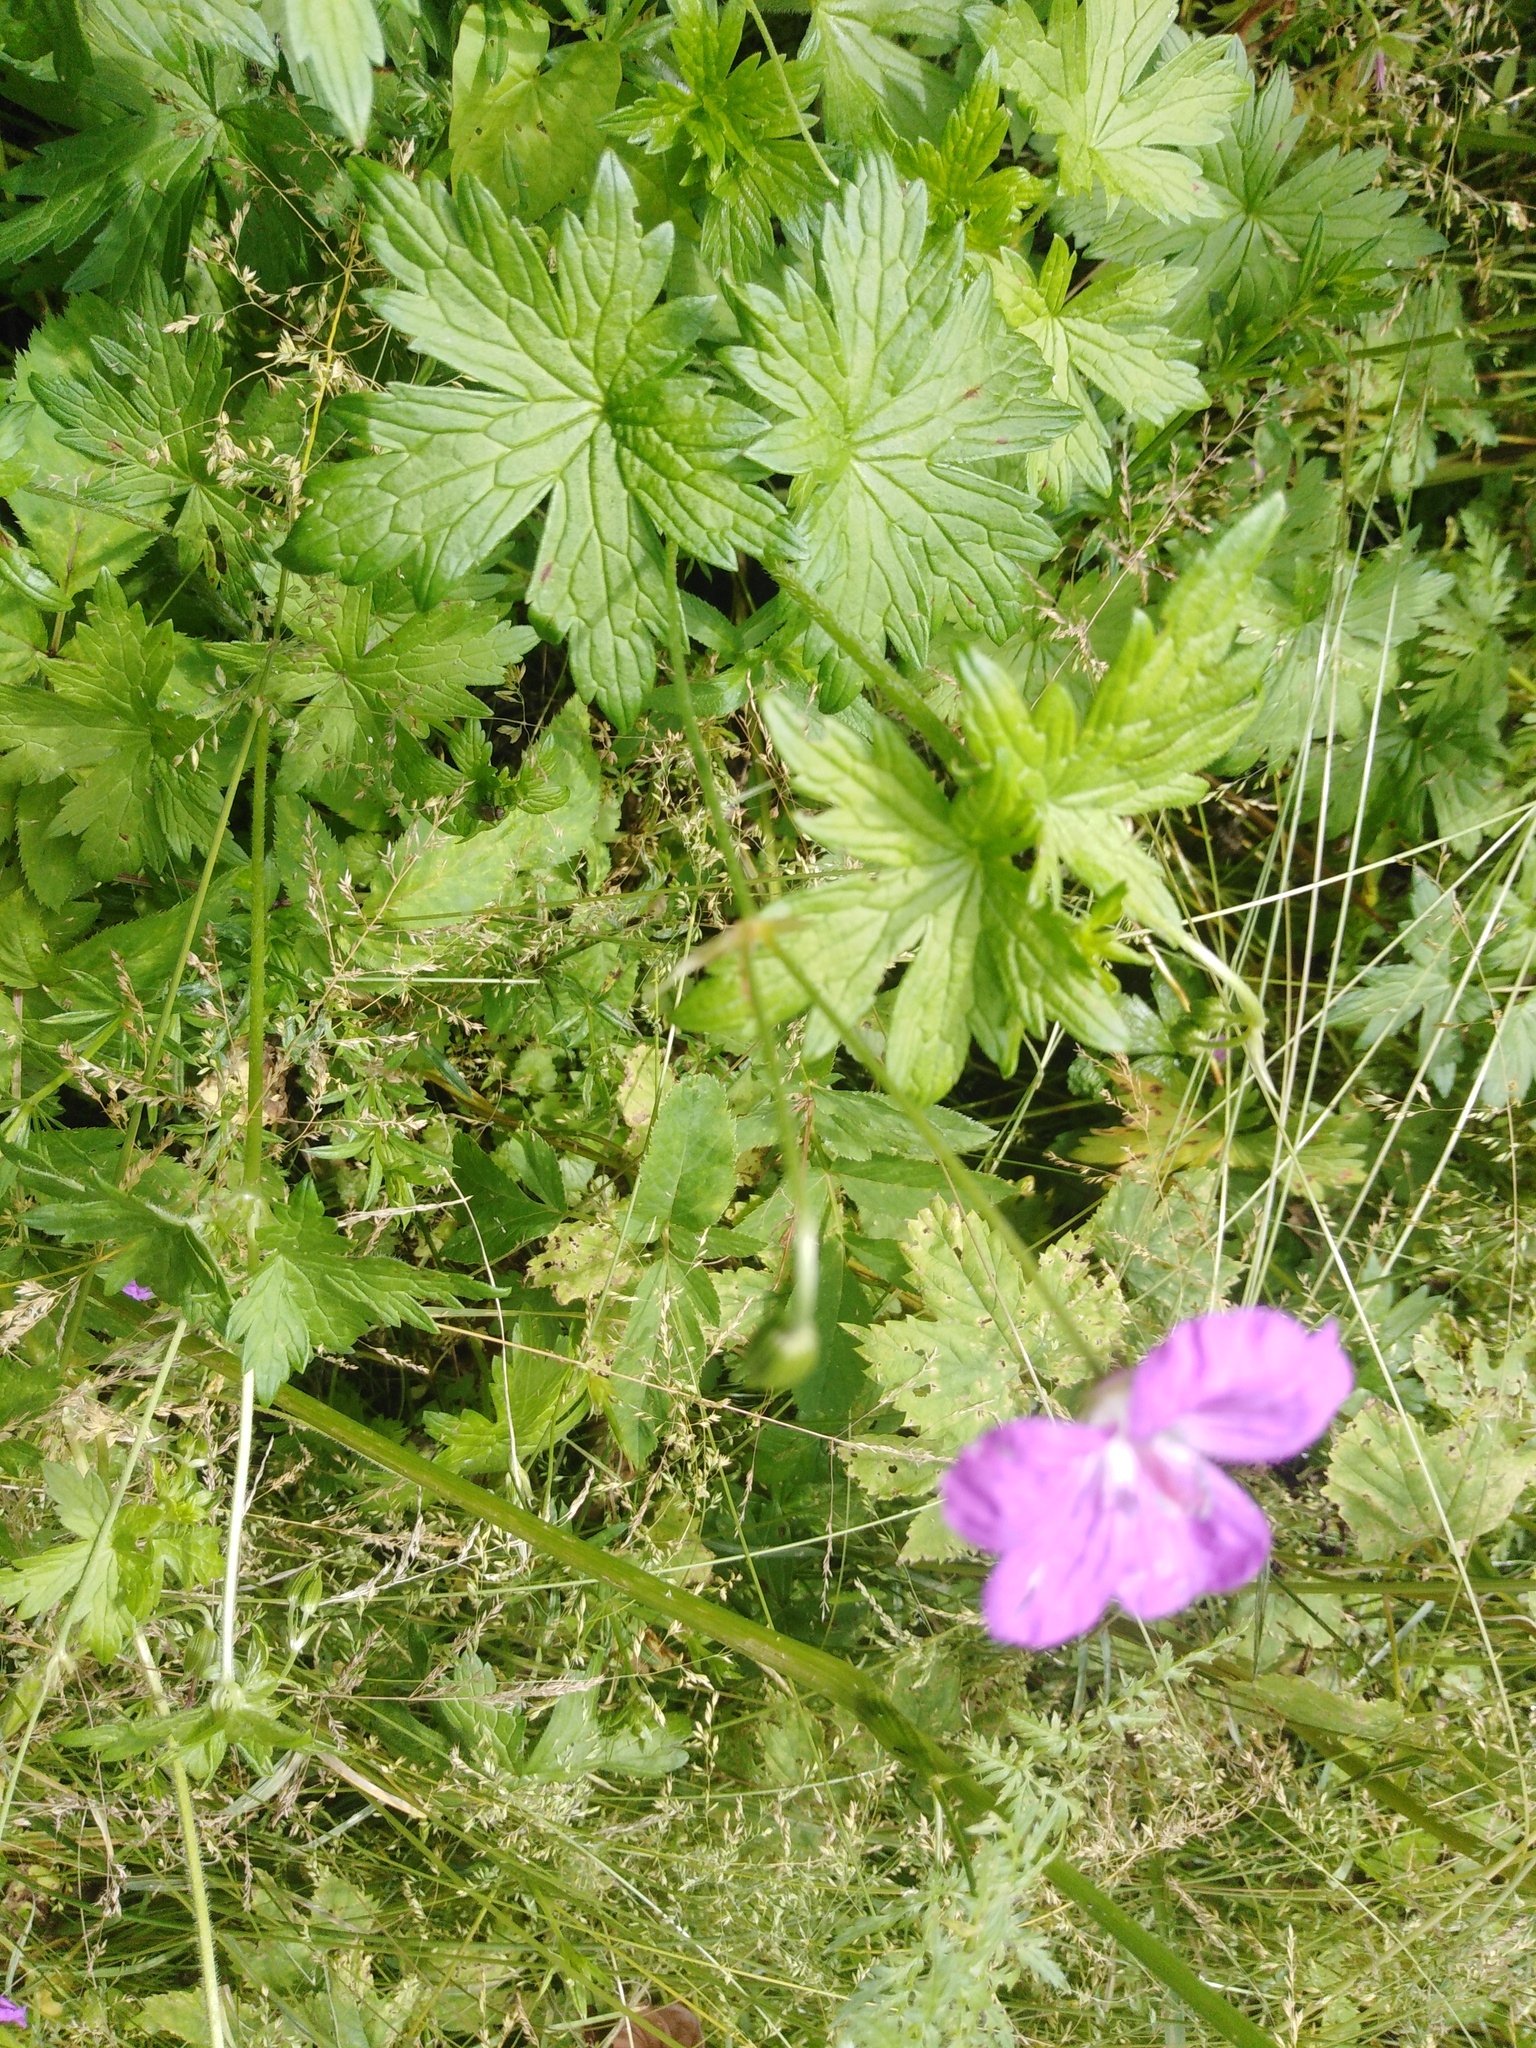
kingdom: Plantae
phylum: Tracheophyta
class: Magnoliopsida
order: Geraniales
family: Geraniaceae
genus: Geranium
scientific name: Geranium palustre
